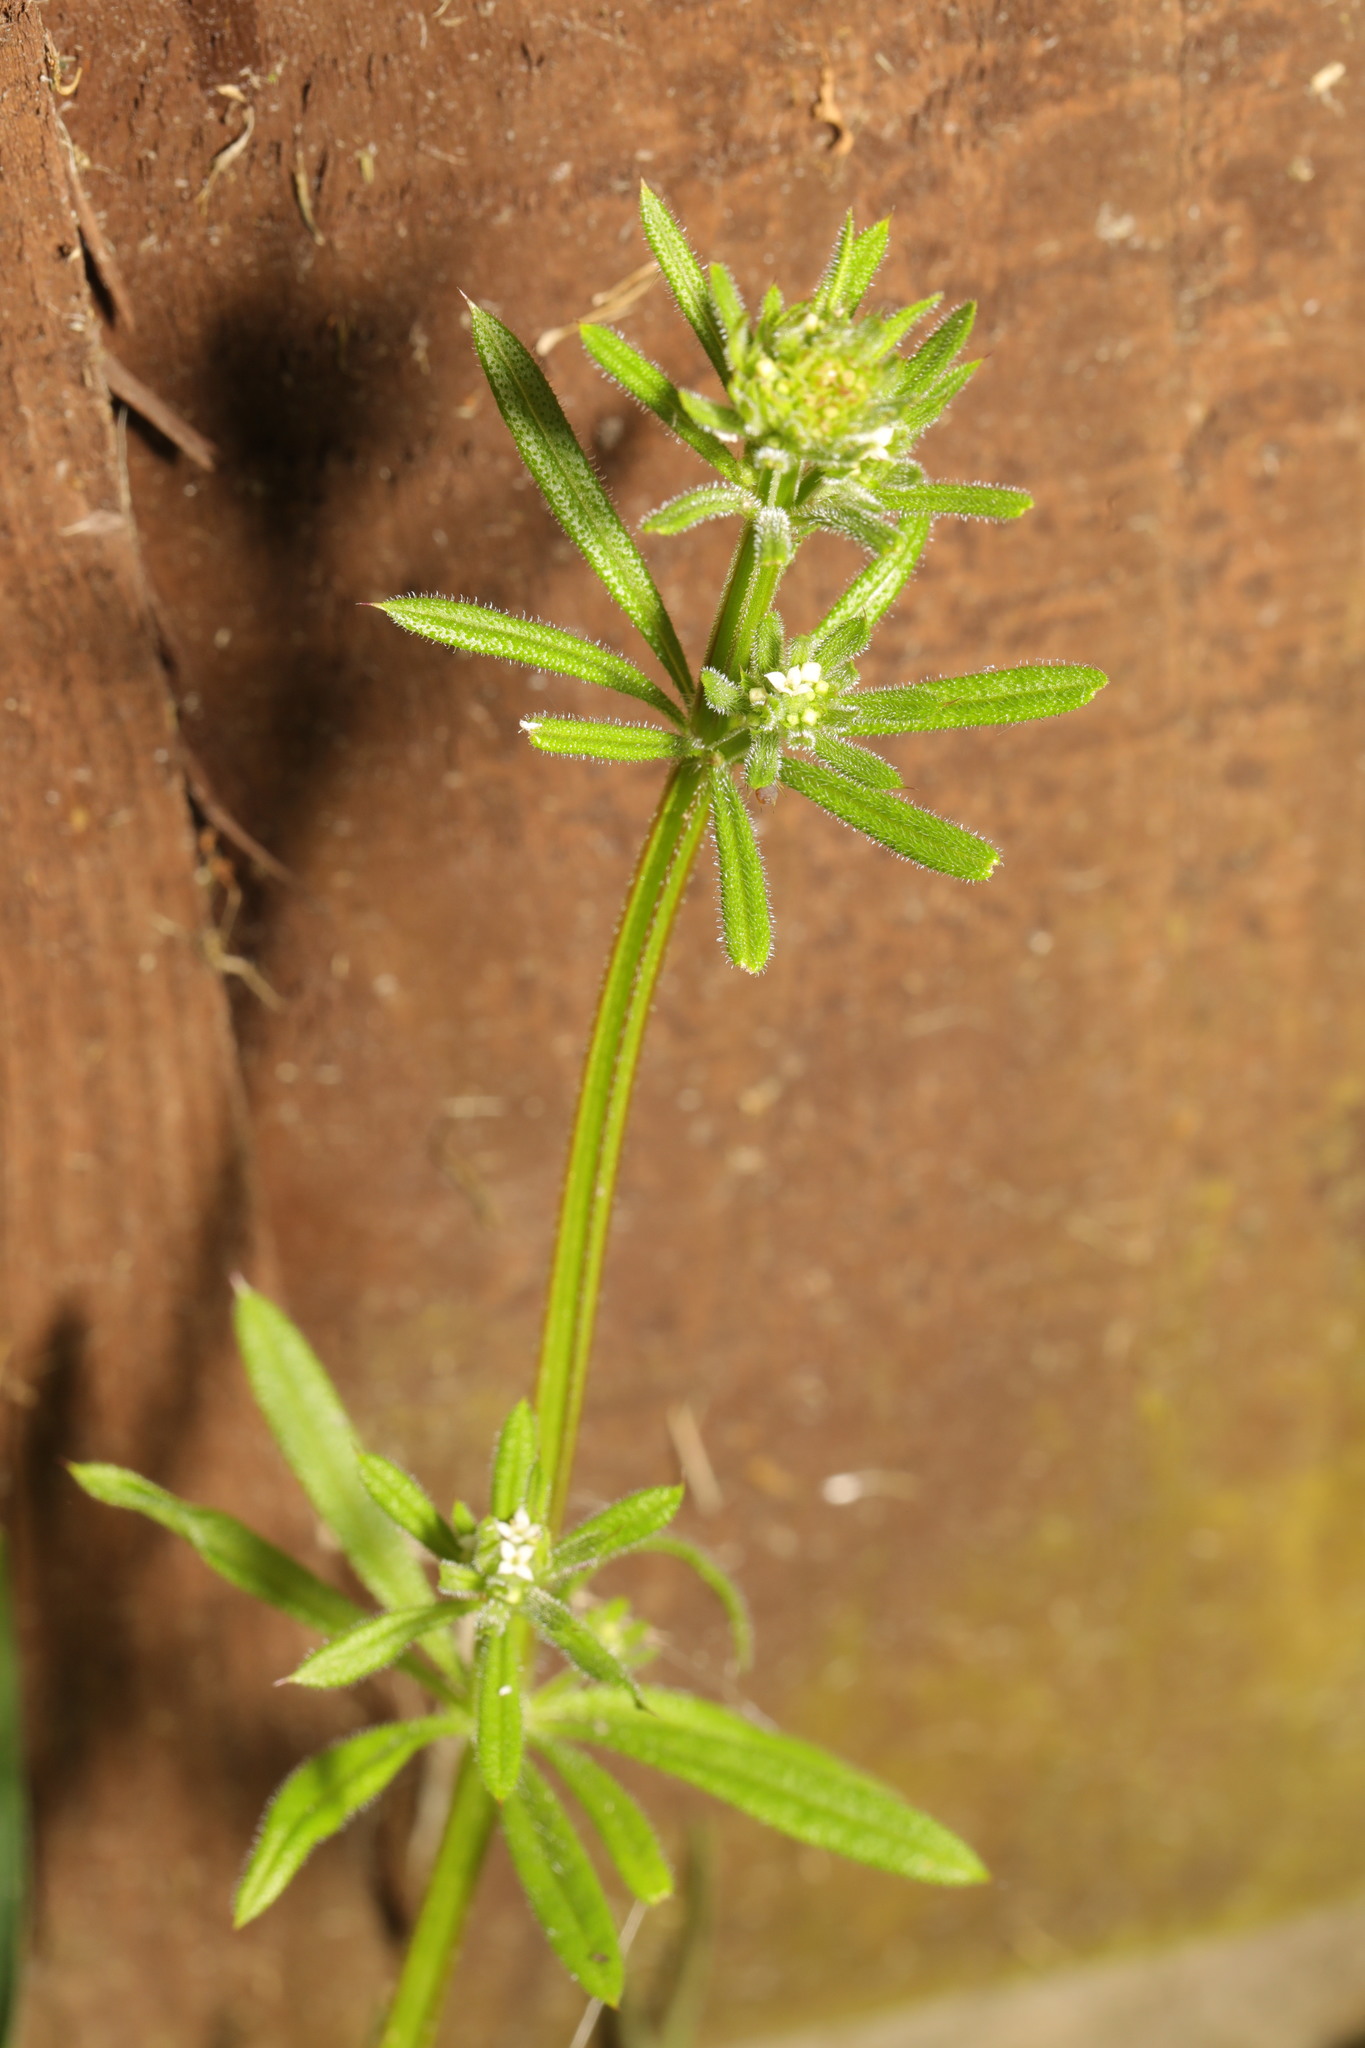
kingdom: Plantae
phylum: Tracheophyta
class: Magnoliopsida
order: Gentianales
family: Rubiaceae
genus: Galium
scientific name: Galium aparine
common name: Cleavers
